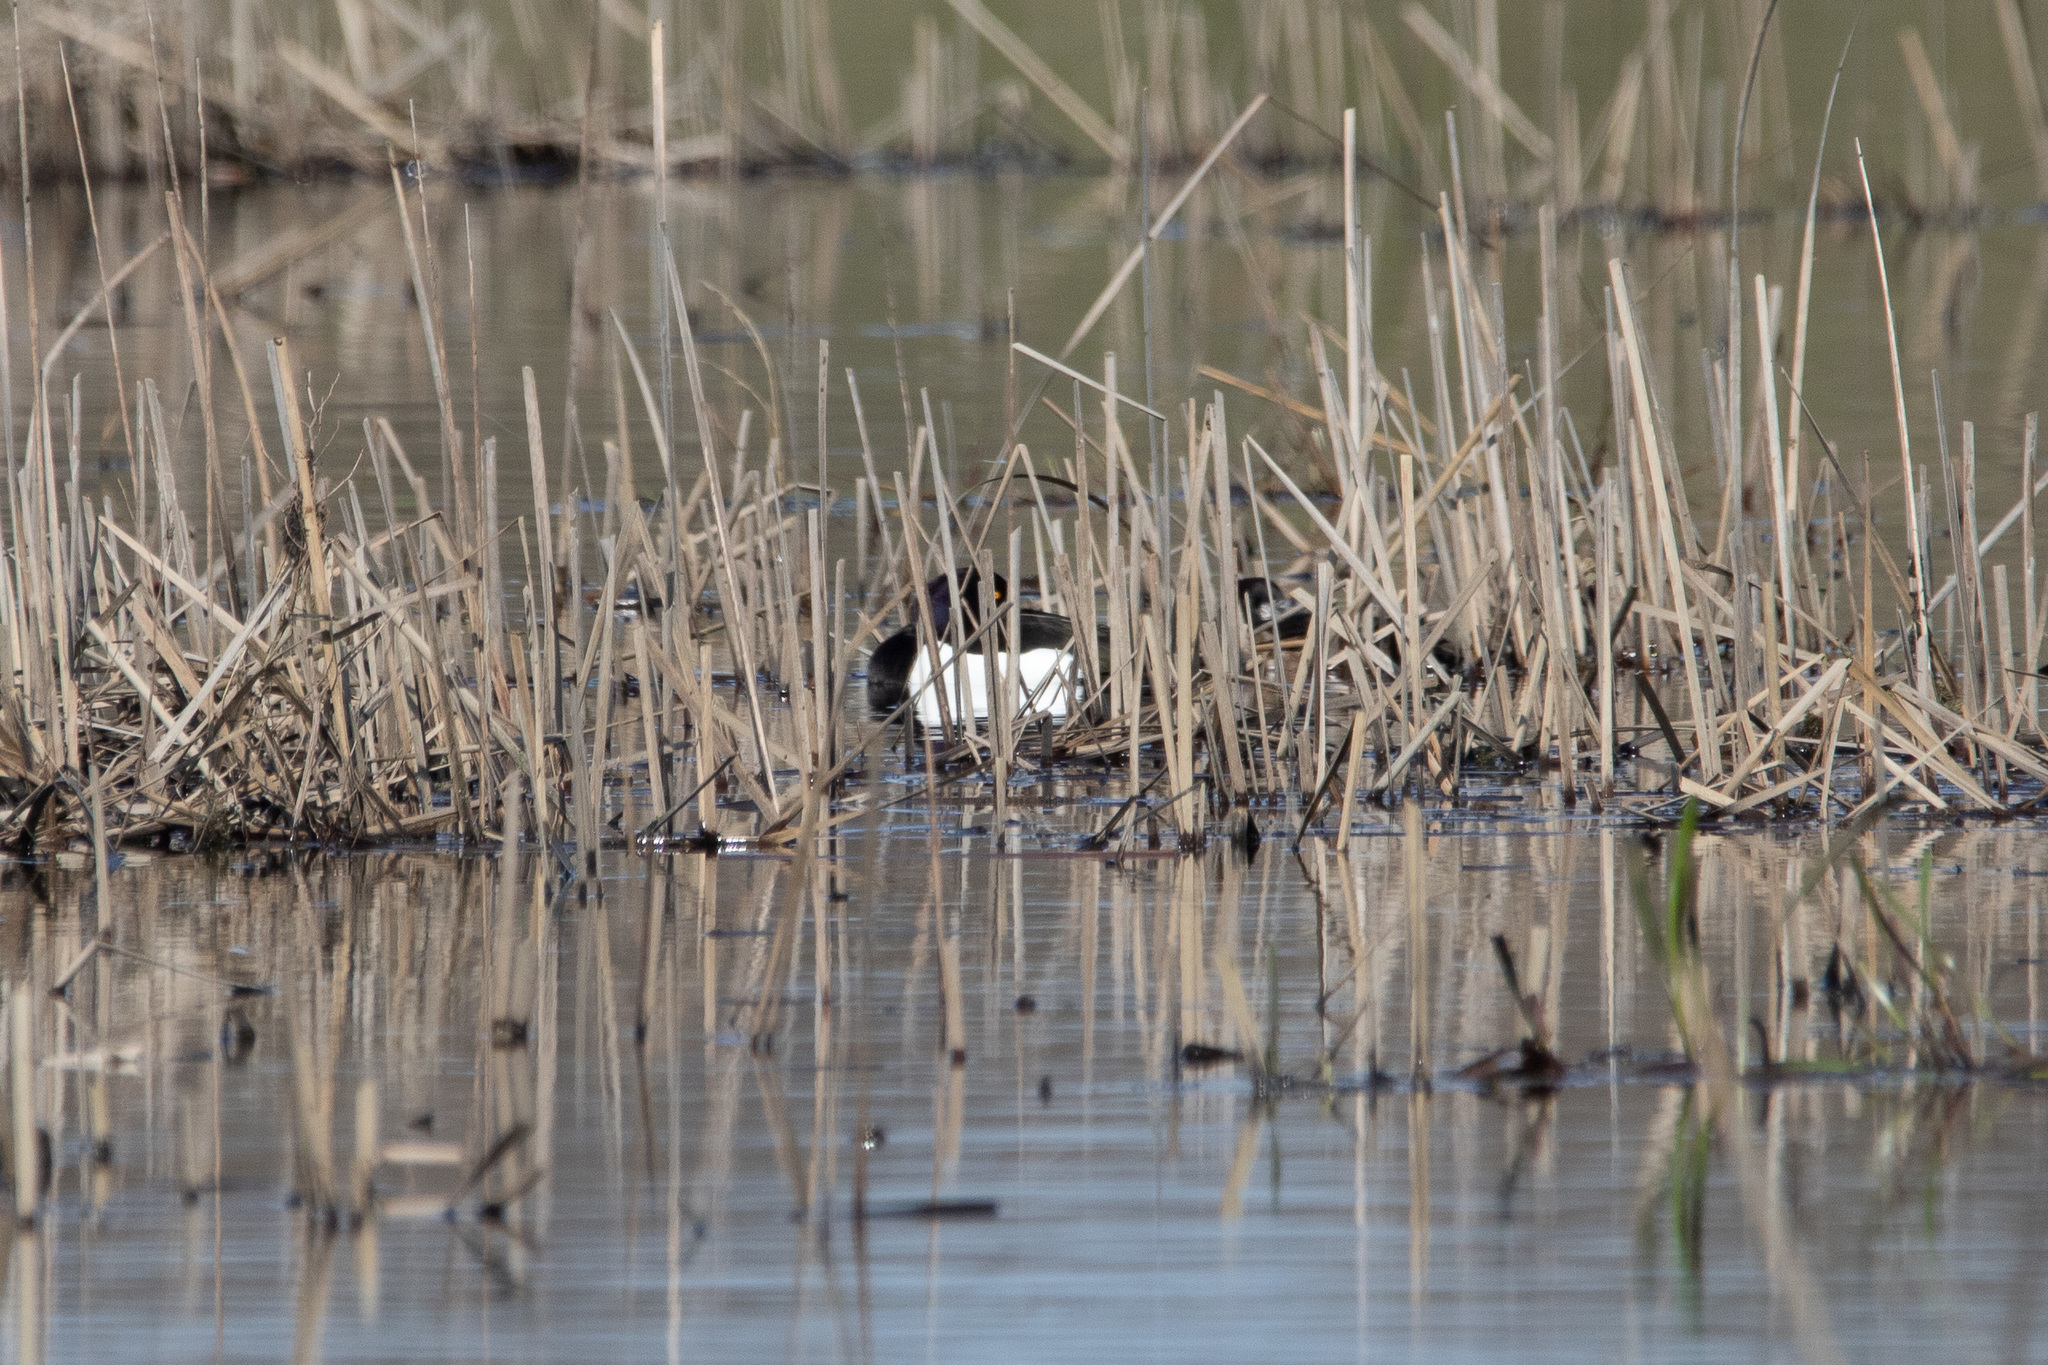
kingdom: Animalia
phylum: Chordata
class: Aves
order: Anseriformes
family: Anatidae
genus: Aythya
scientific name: Aythya fuligula
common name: Tufted duck
